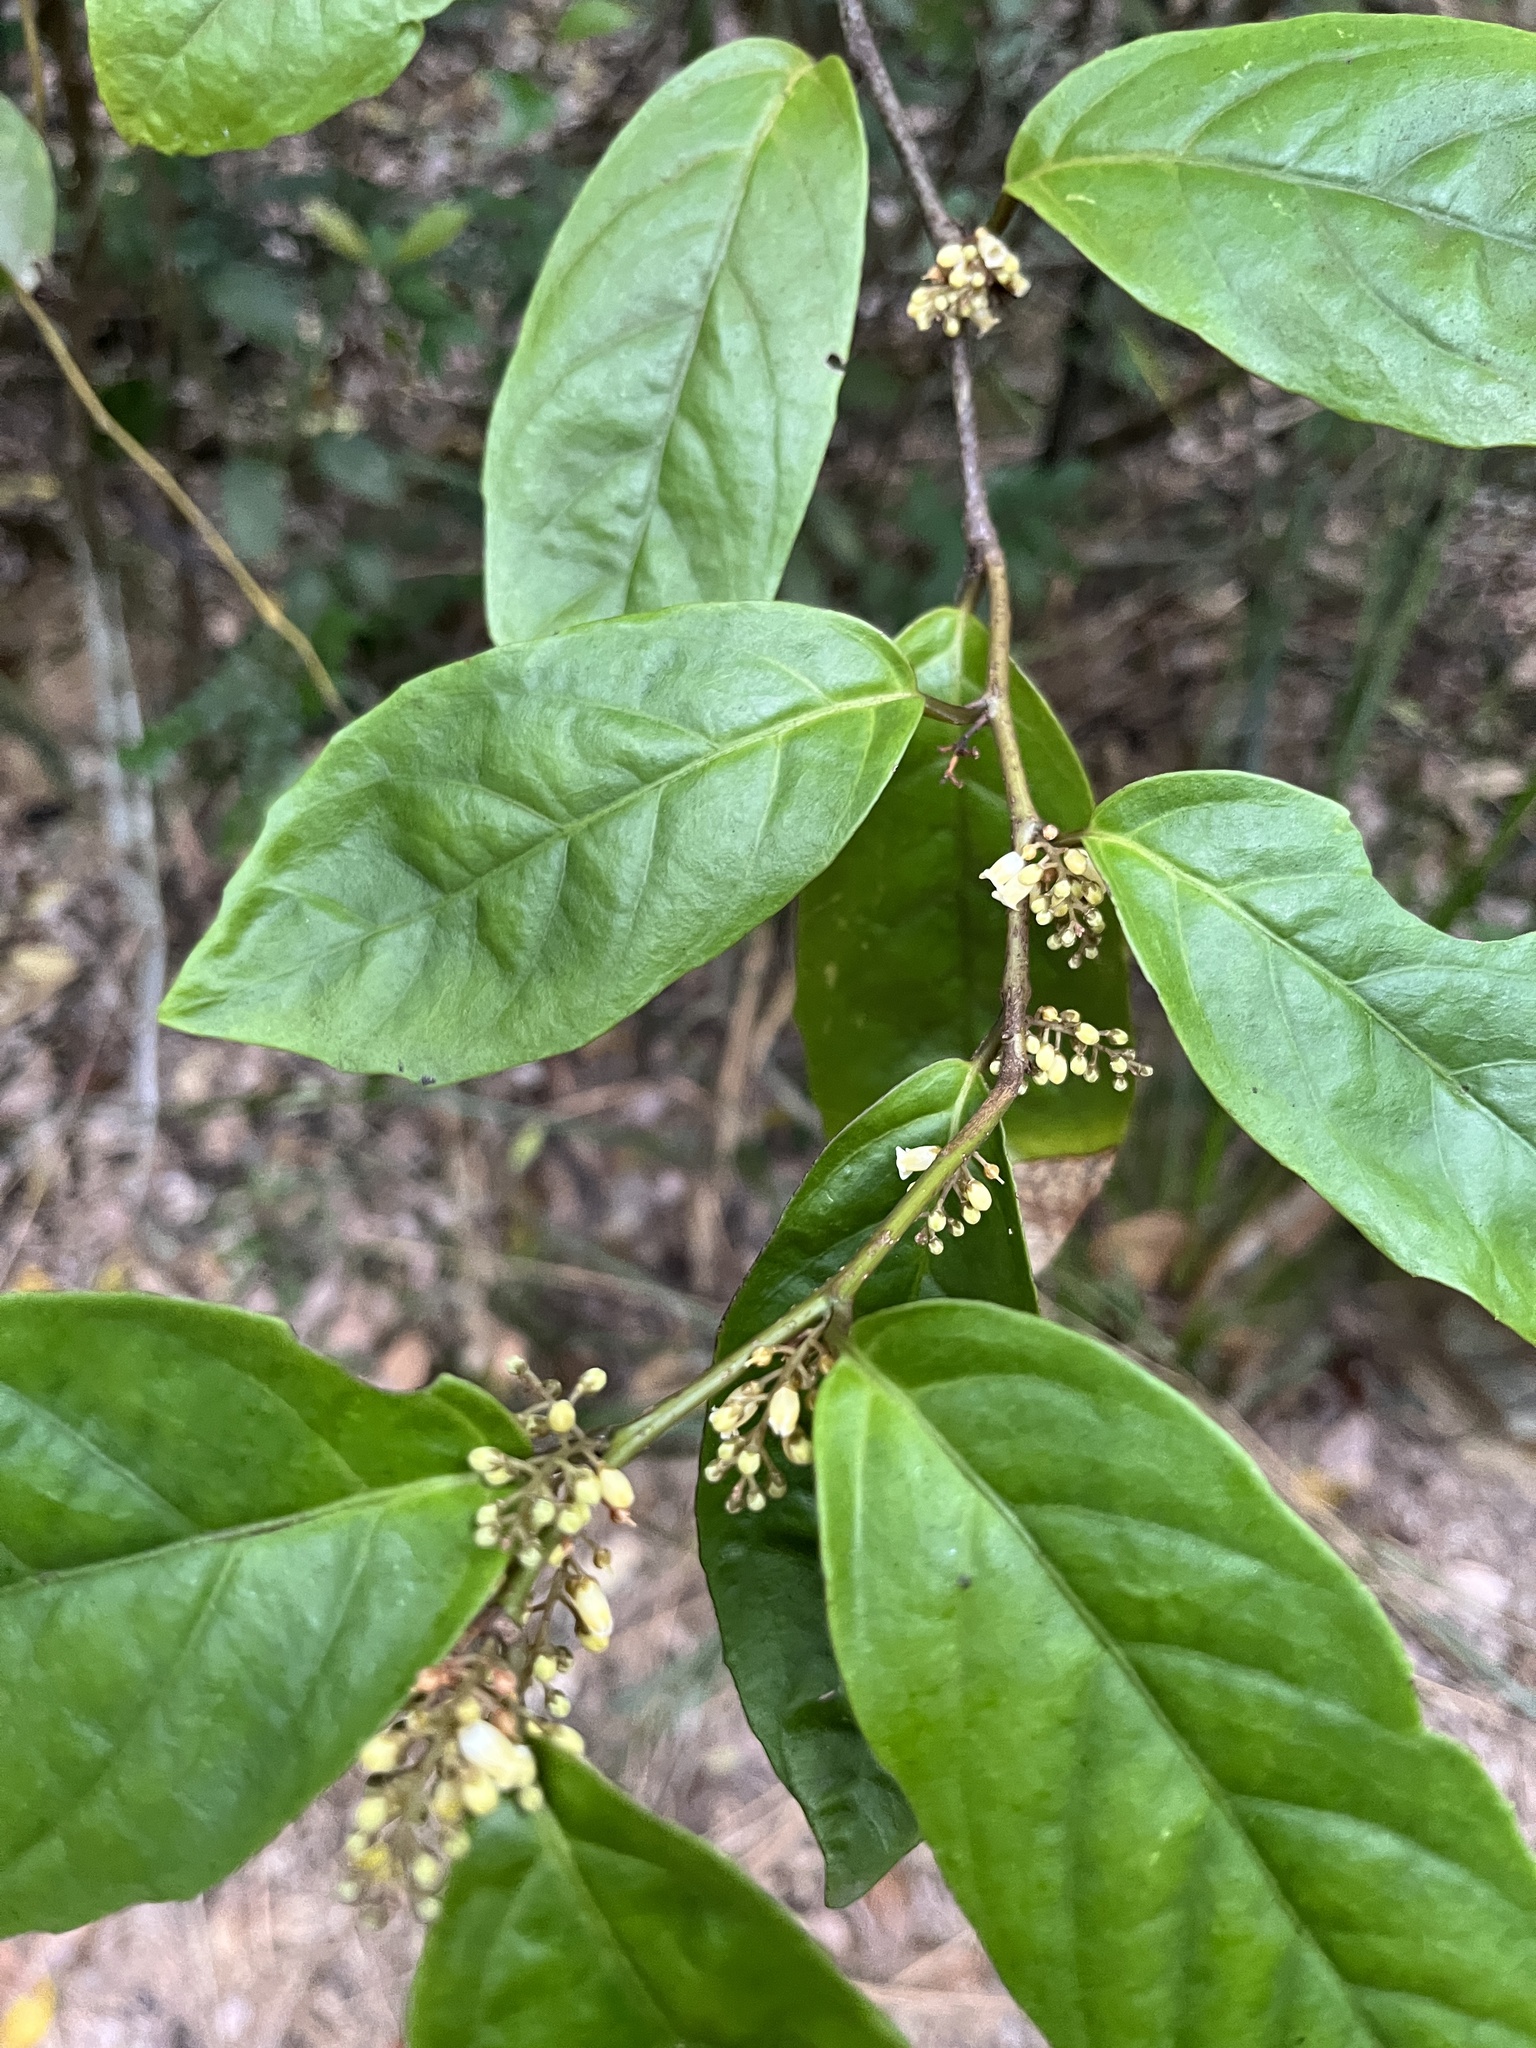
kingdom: Plantae
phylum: Tracheophyta
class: Magnoliopsida
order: Ericales
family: Primulaceae
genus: Maesa
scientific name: Maesa japonica
